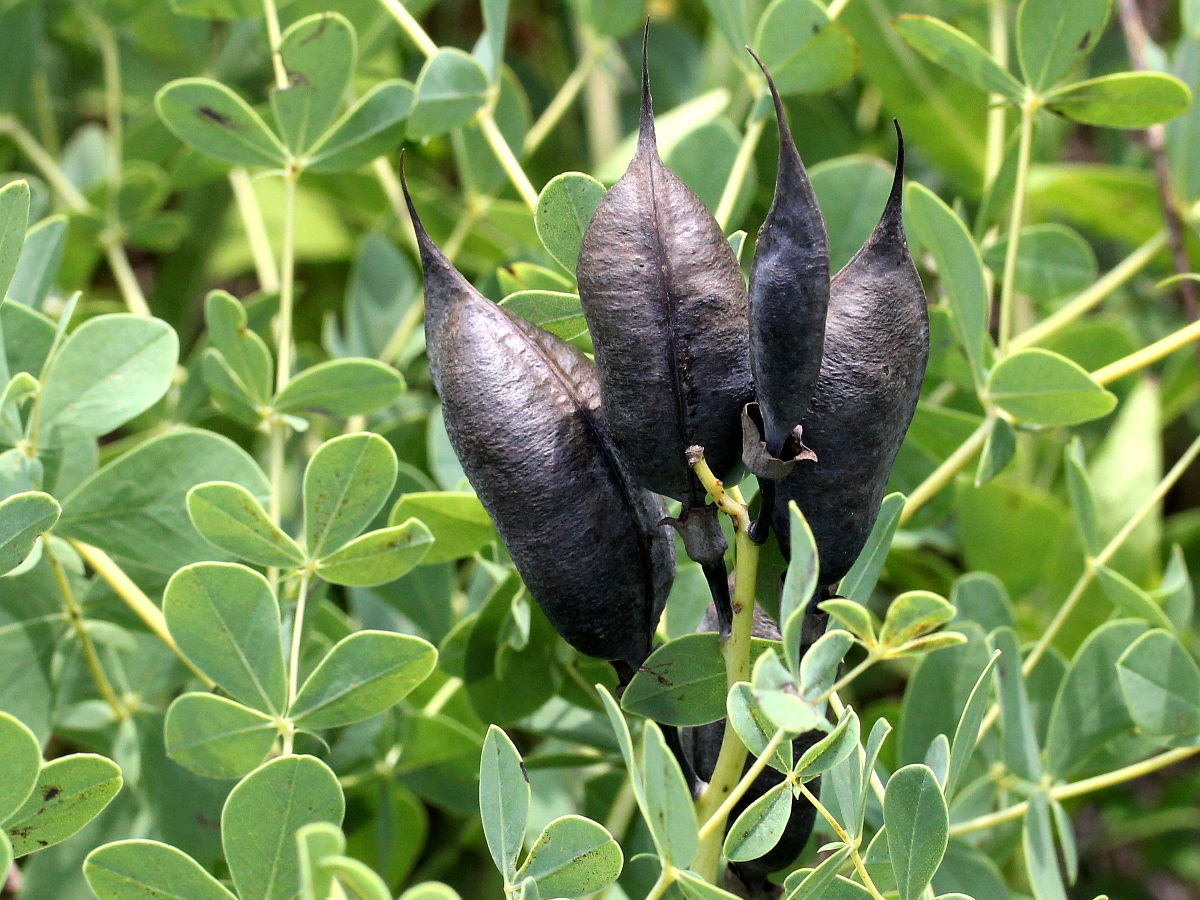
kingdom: Plantae
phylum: Tracheophyta
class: Magnoliopsida
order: Fabales
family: Fabaceae
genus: Baptisia
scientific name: Baptisia australis
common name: Blue false indigo
